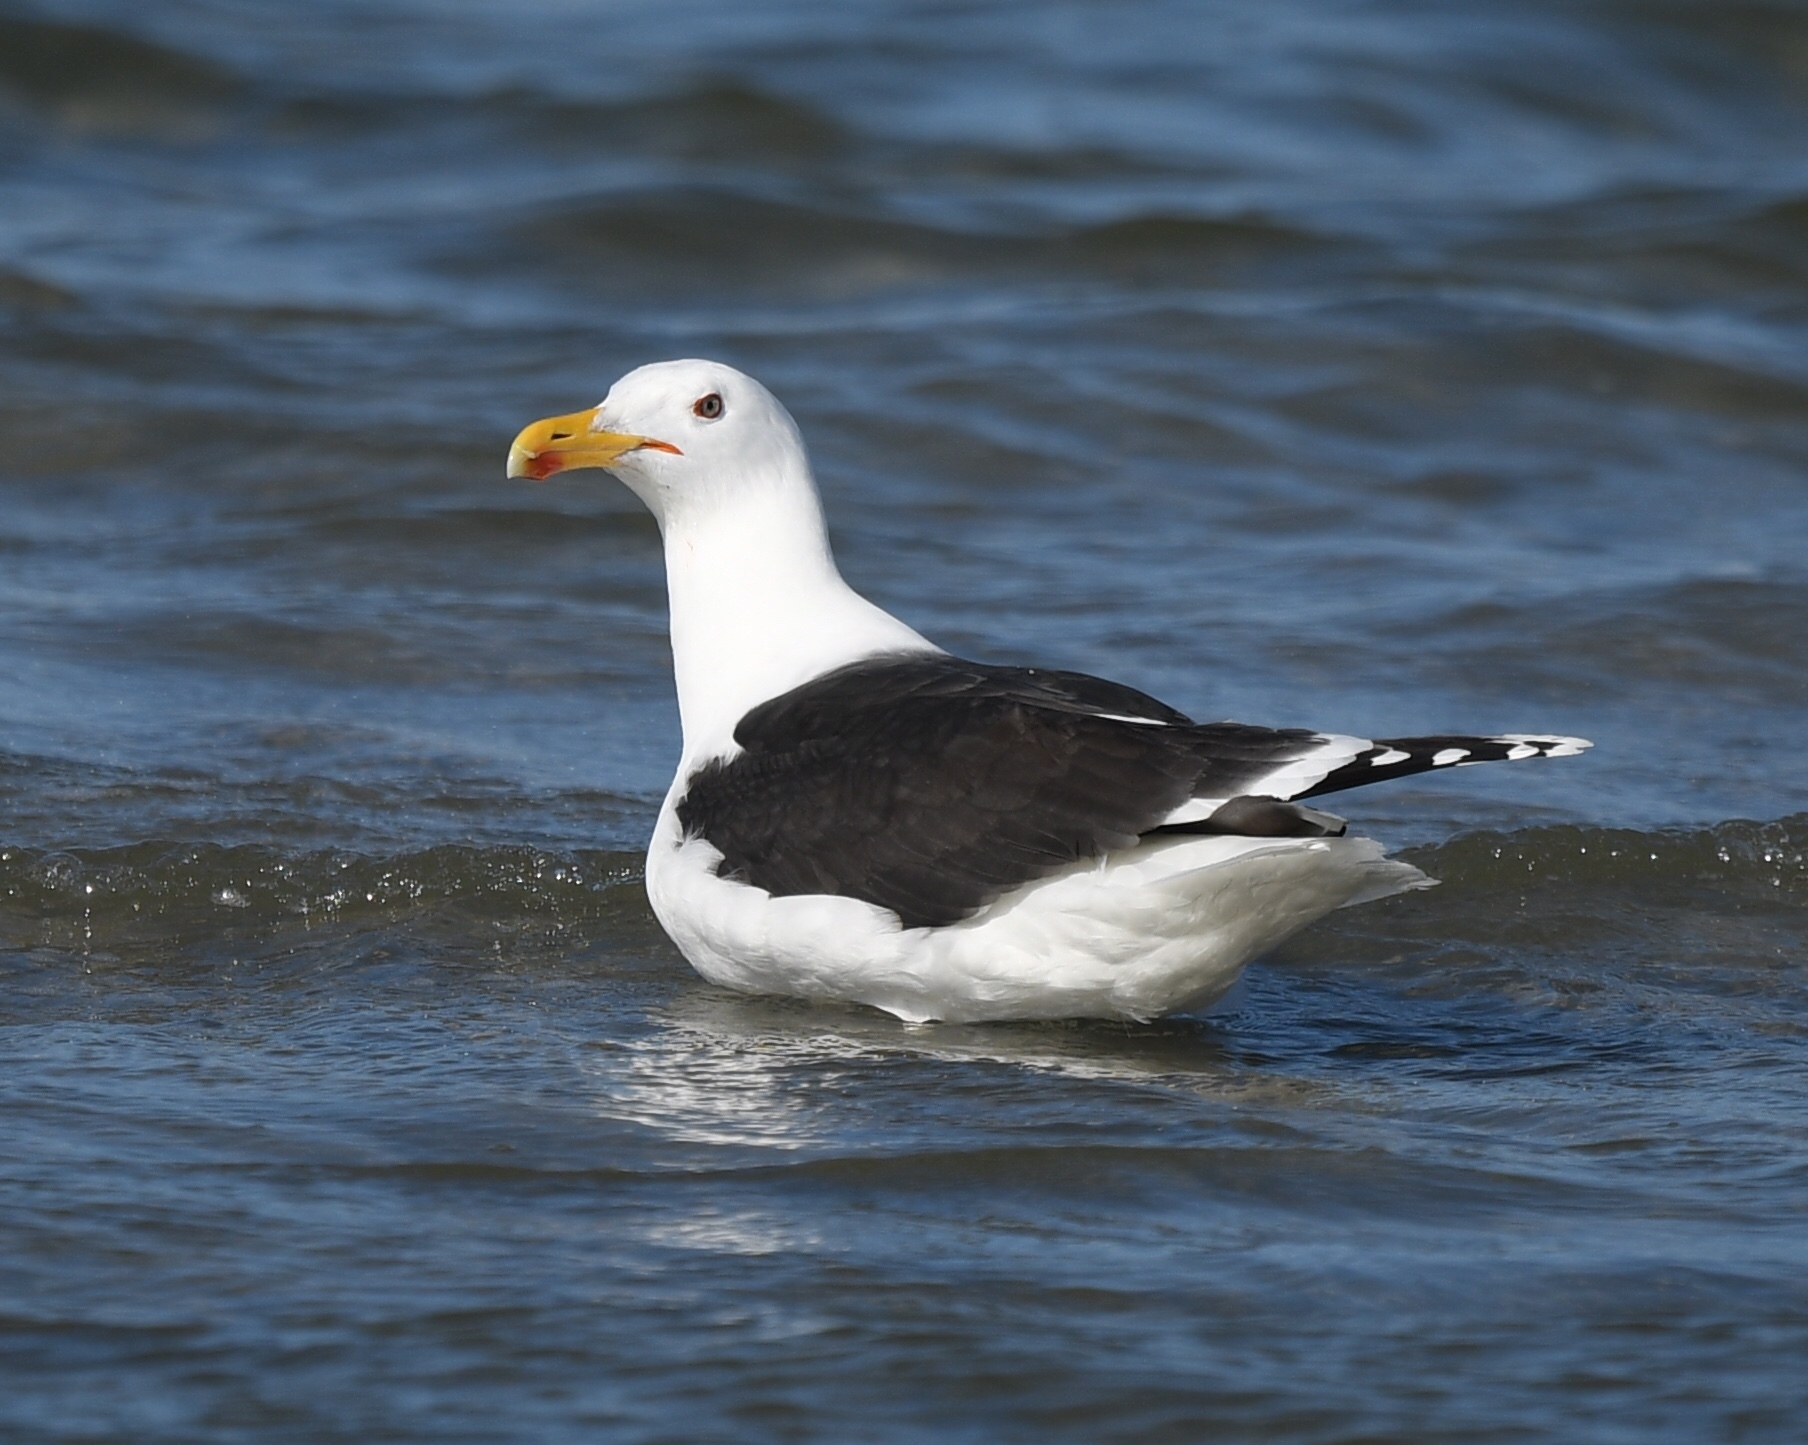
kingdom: Animalia
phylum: Chordata
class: Aves
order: Charadriiformes
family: Laridae
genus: Larus
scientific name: Larus marinus
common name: Great black-backed gull
